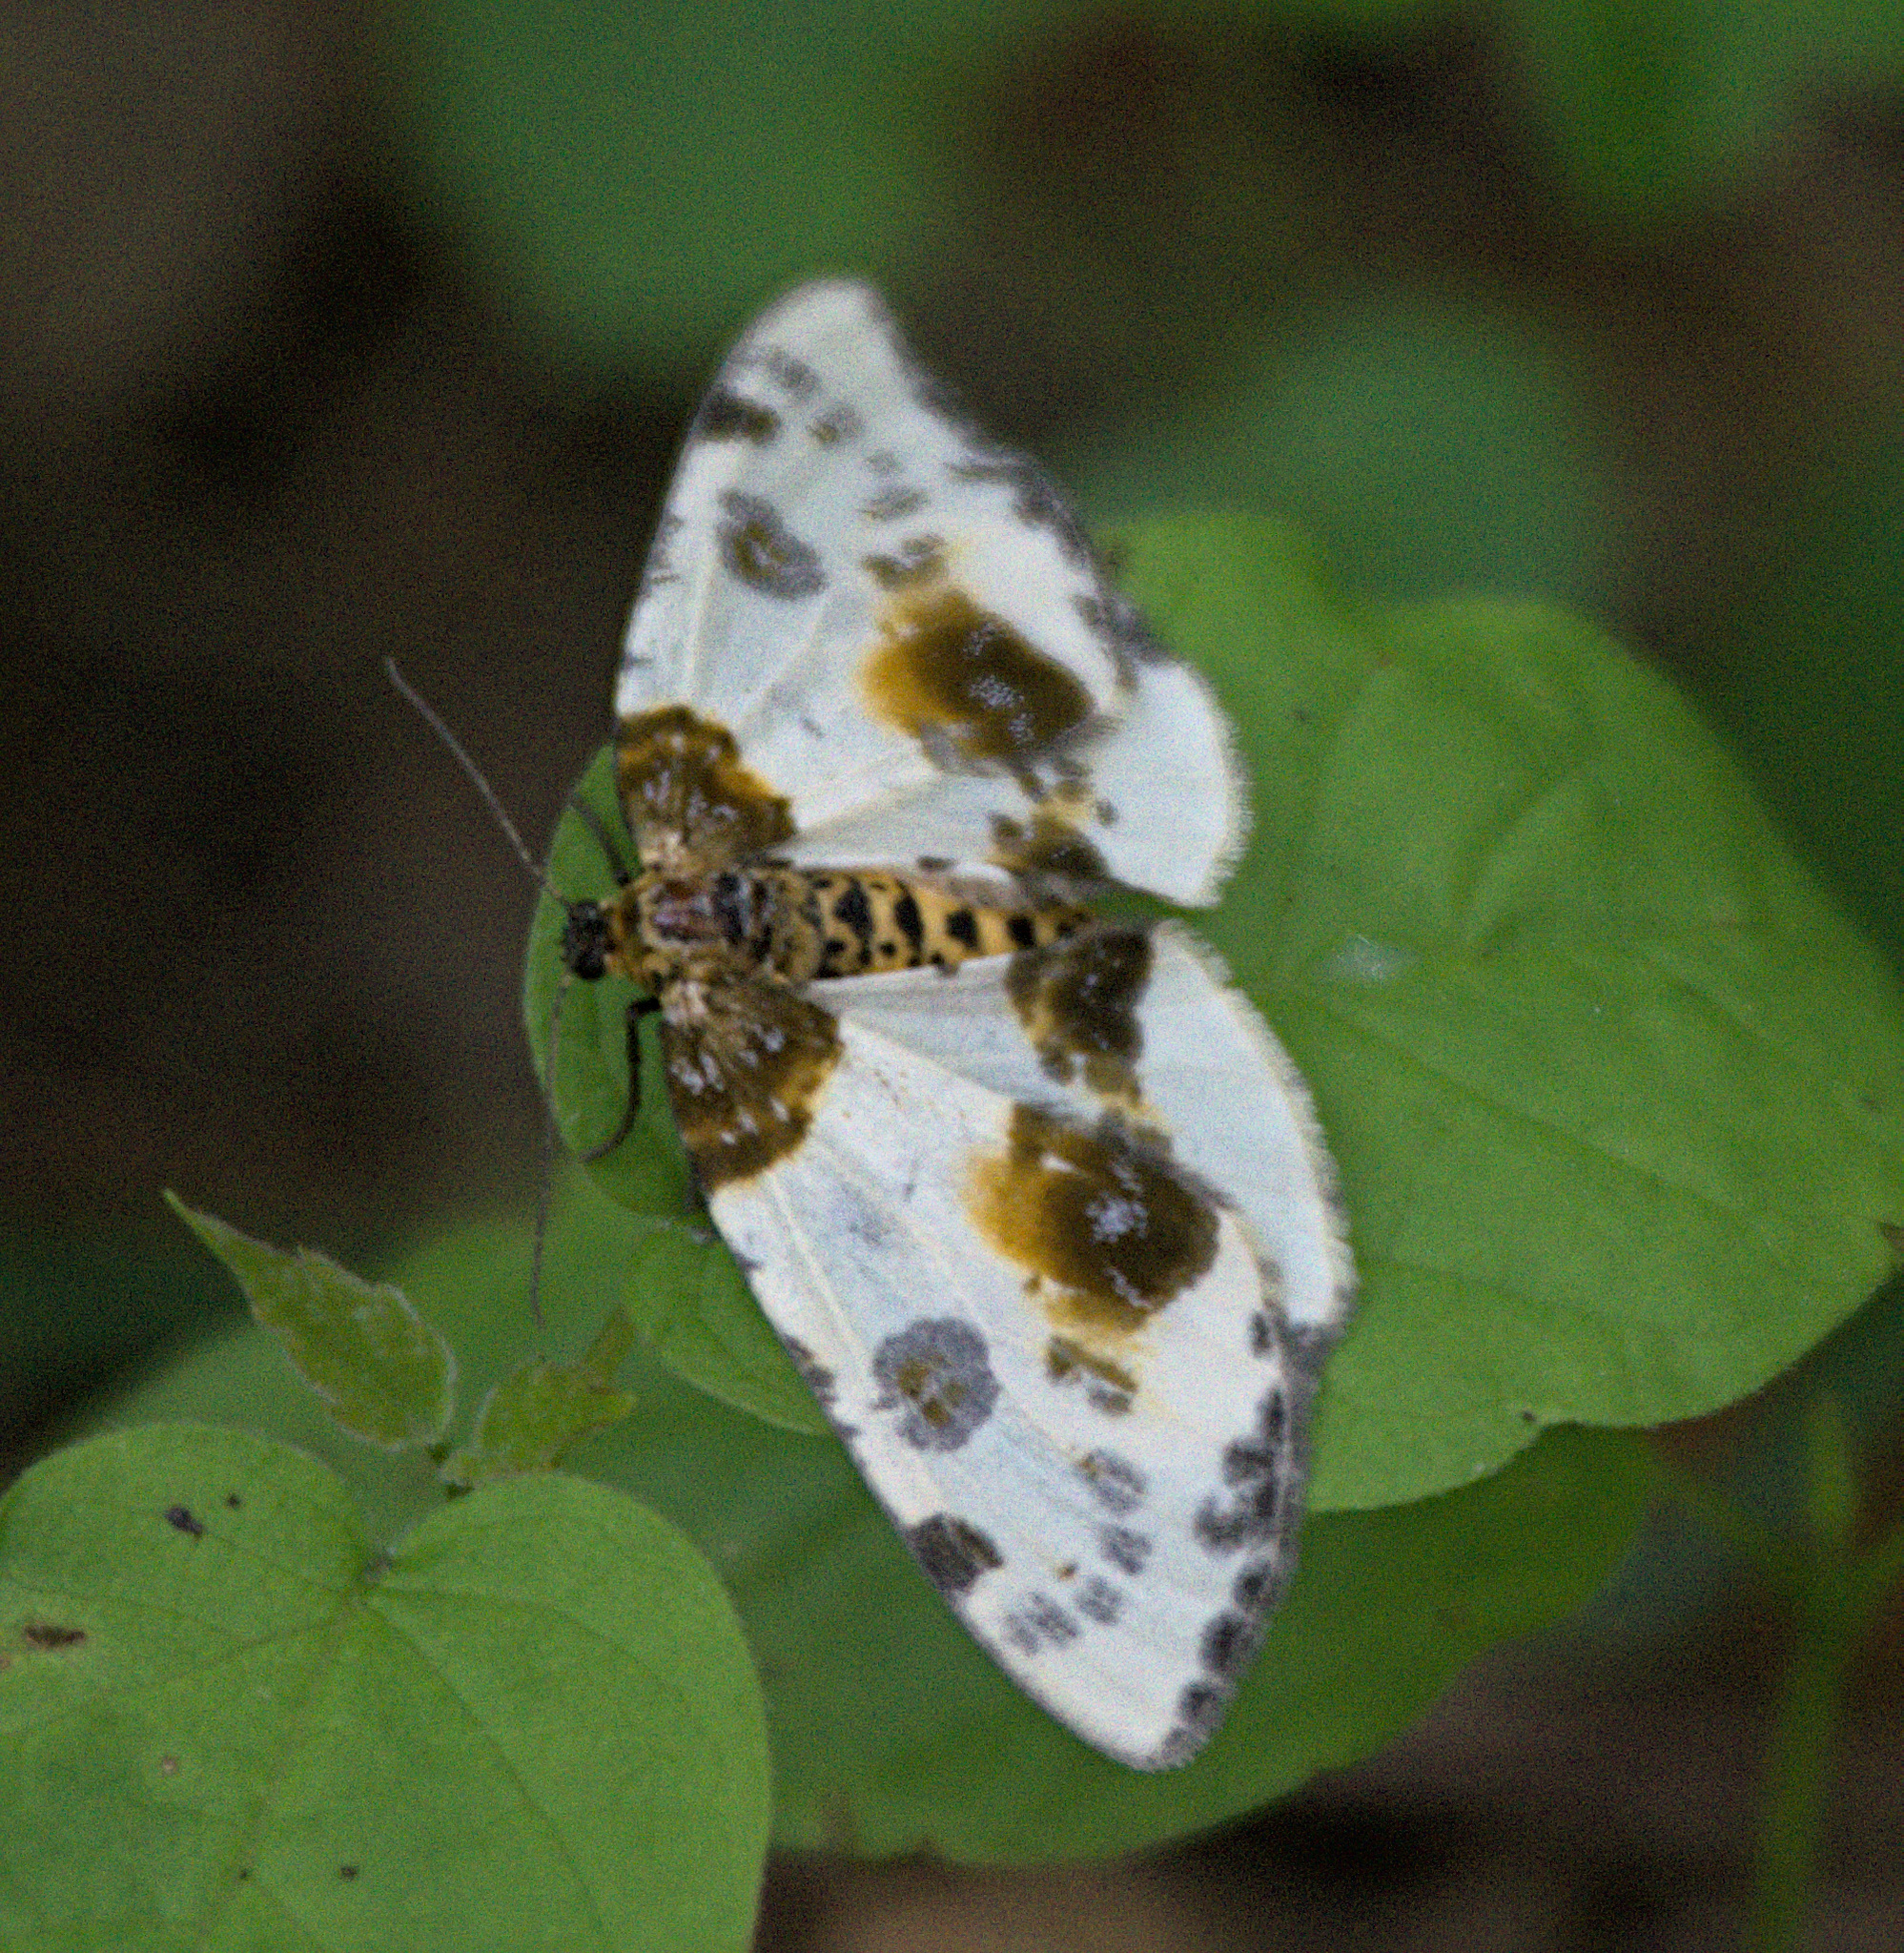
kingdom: Animalia
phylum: Arthropoda
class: Insecta
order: Lepidoptera
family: Geometridae
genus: Abraxas
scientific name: Abraxas sylvata
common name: Clouded magpie
